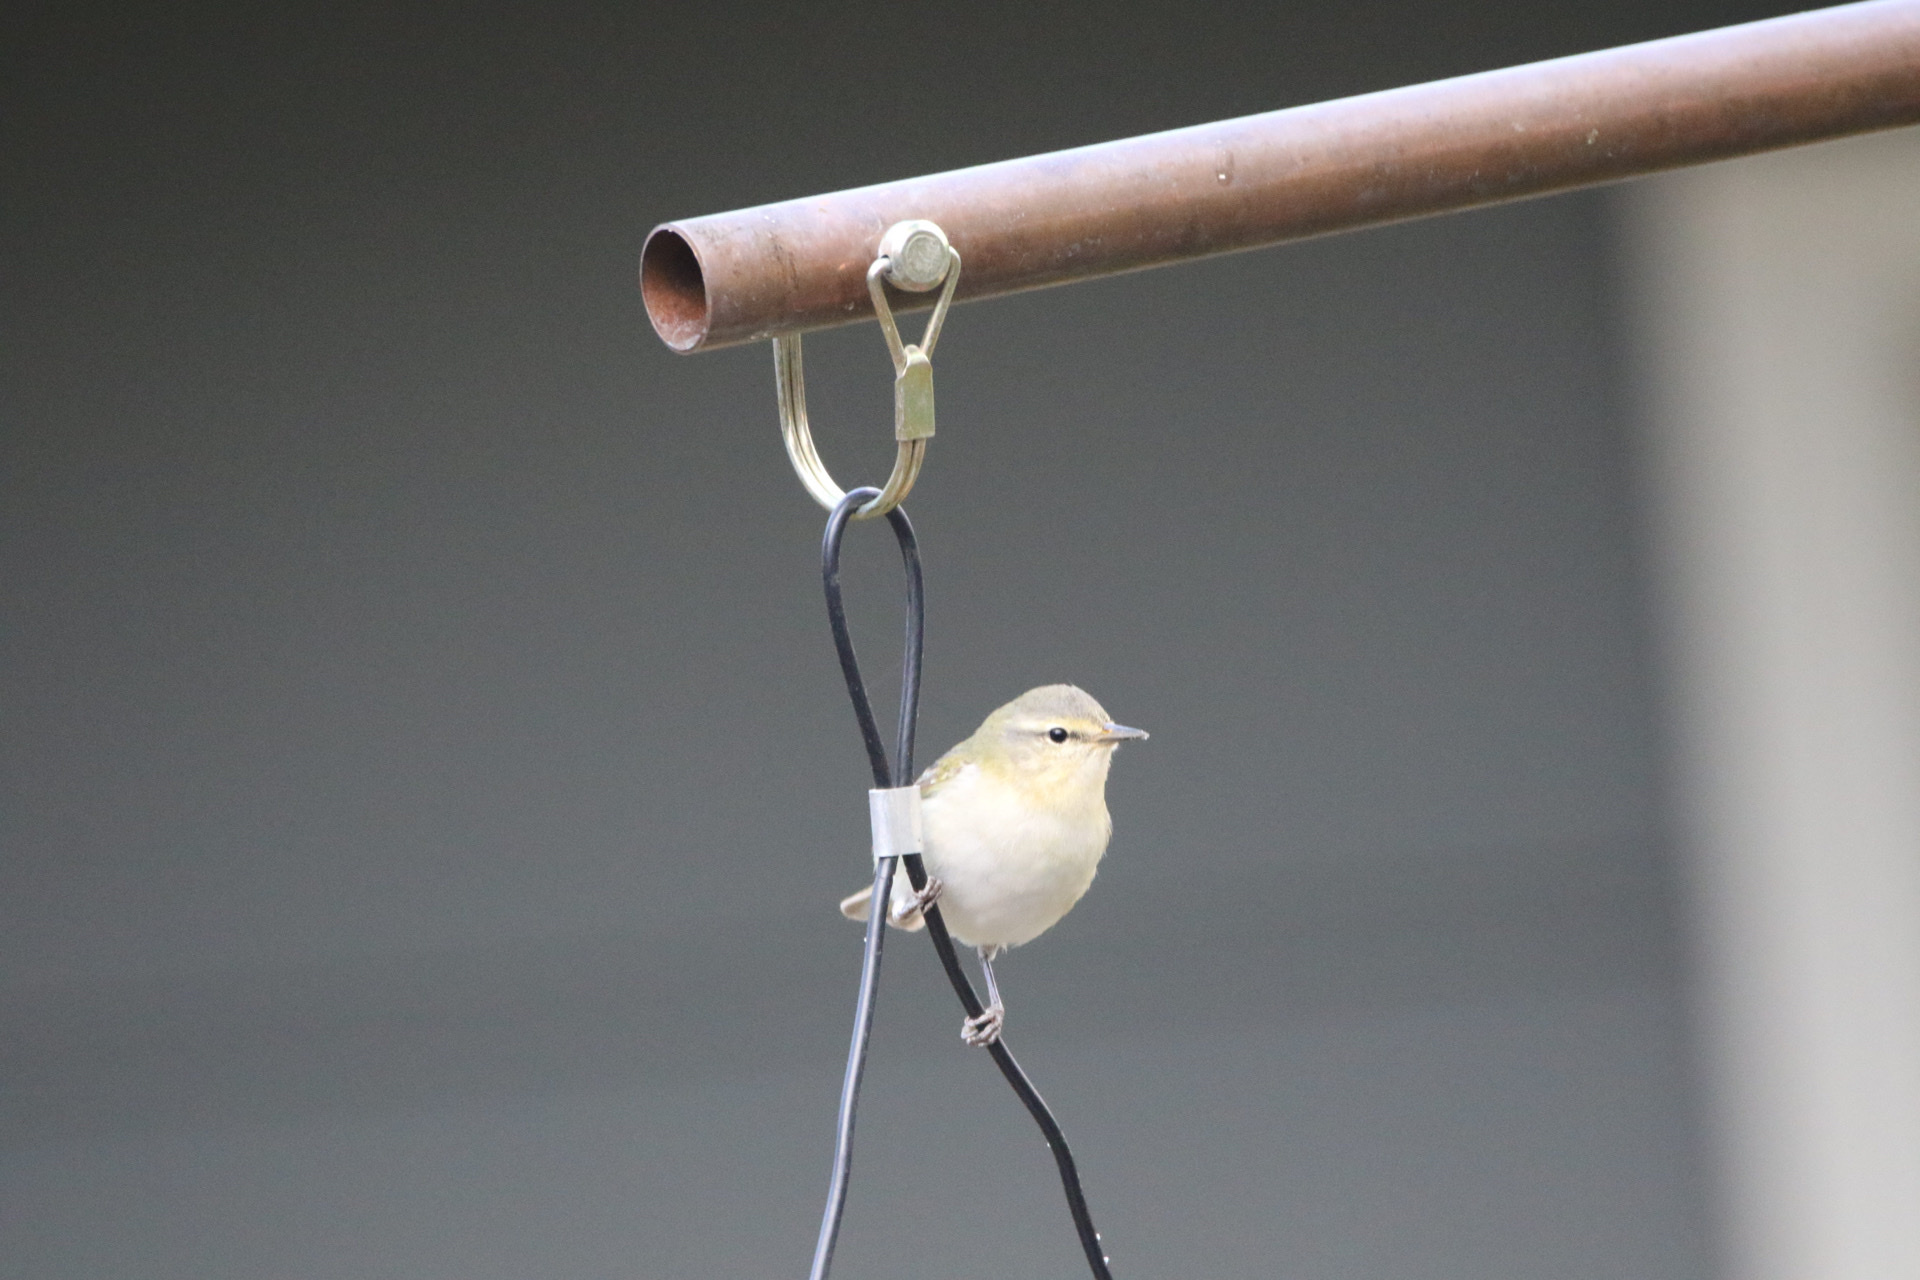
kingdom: Animalia
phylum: Chordata
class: Aves
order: Passeriformes
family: Parulidae
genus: Leiothlypis
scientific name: Leiothlypis peregrina
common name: Tennessee warbler
